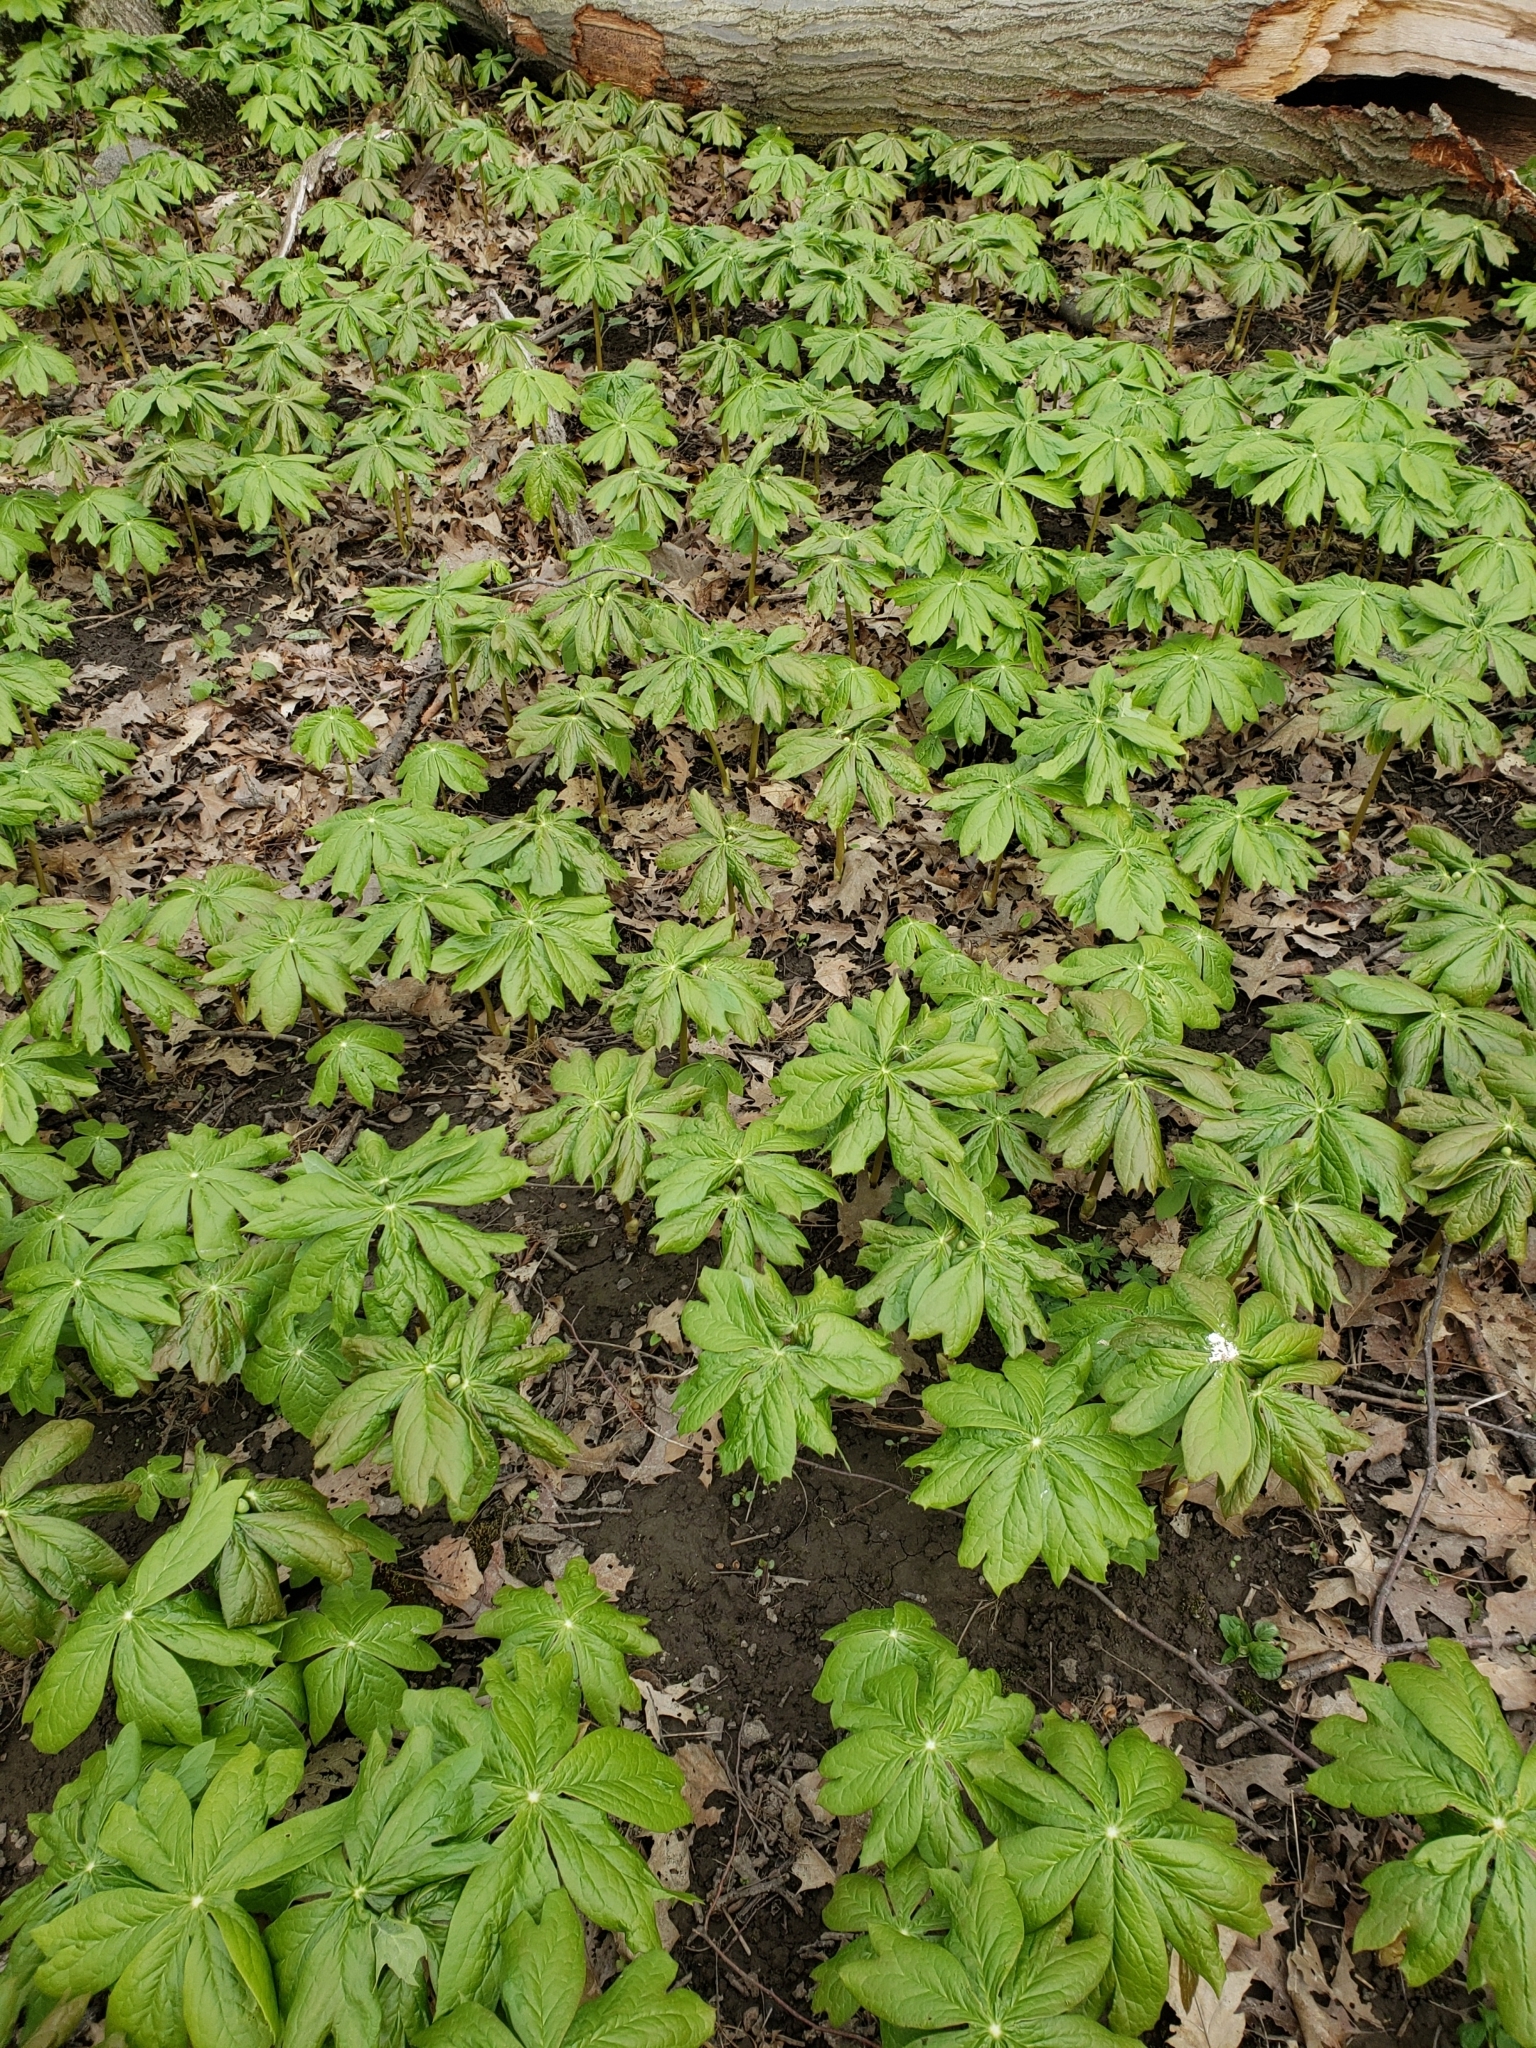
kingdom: Plantae
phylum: Tracheophyta
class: Magnoliopsida
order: Ranunculales
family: Berberidaceae
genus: Podophyllum
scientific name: Podophyllum peltatum
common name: Wild mandrake
